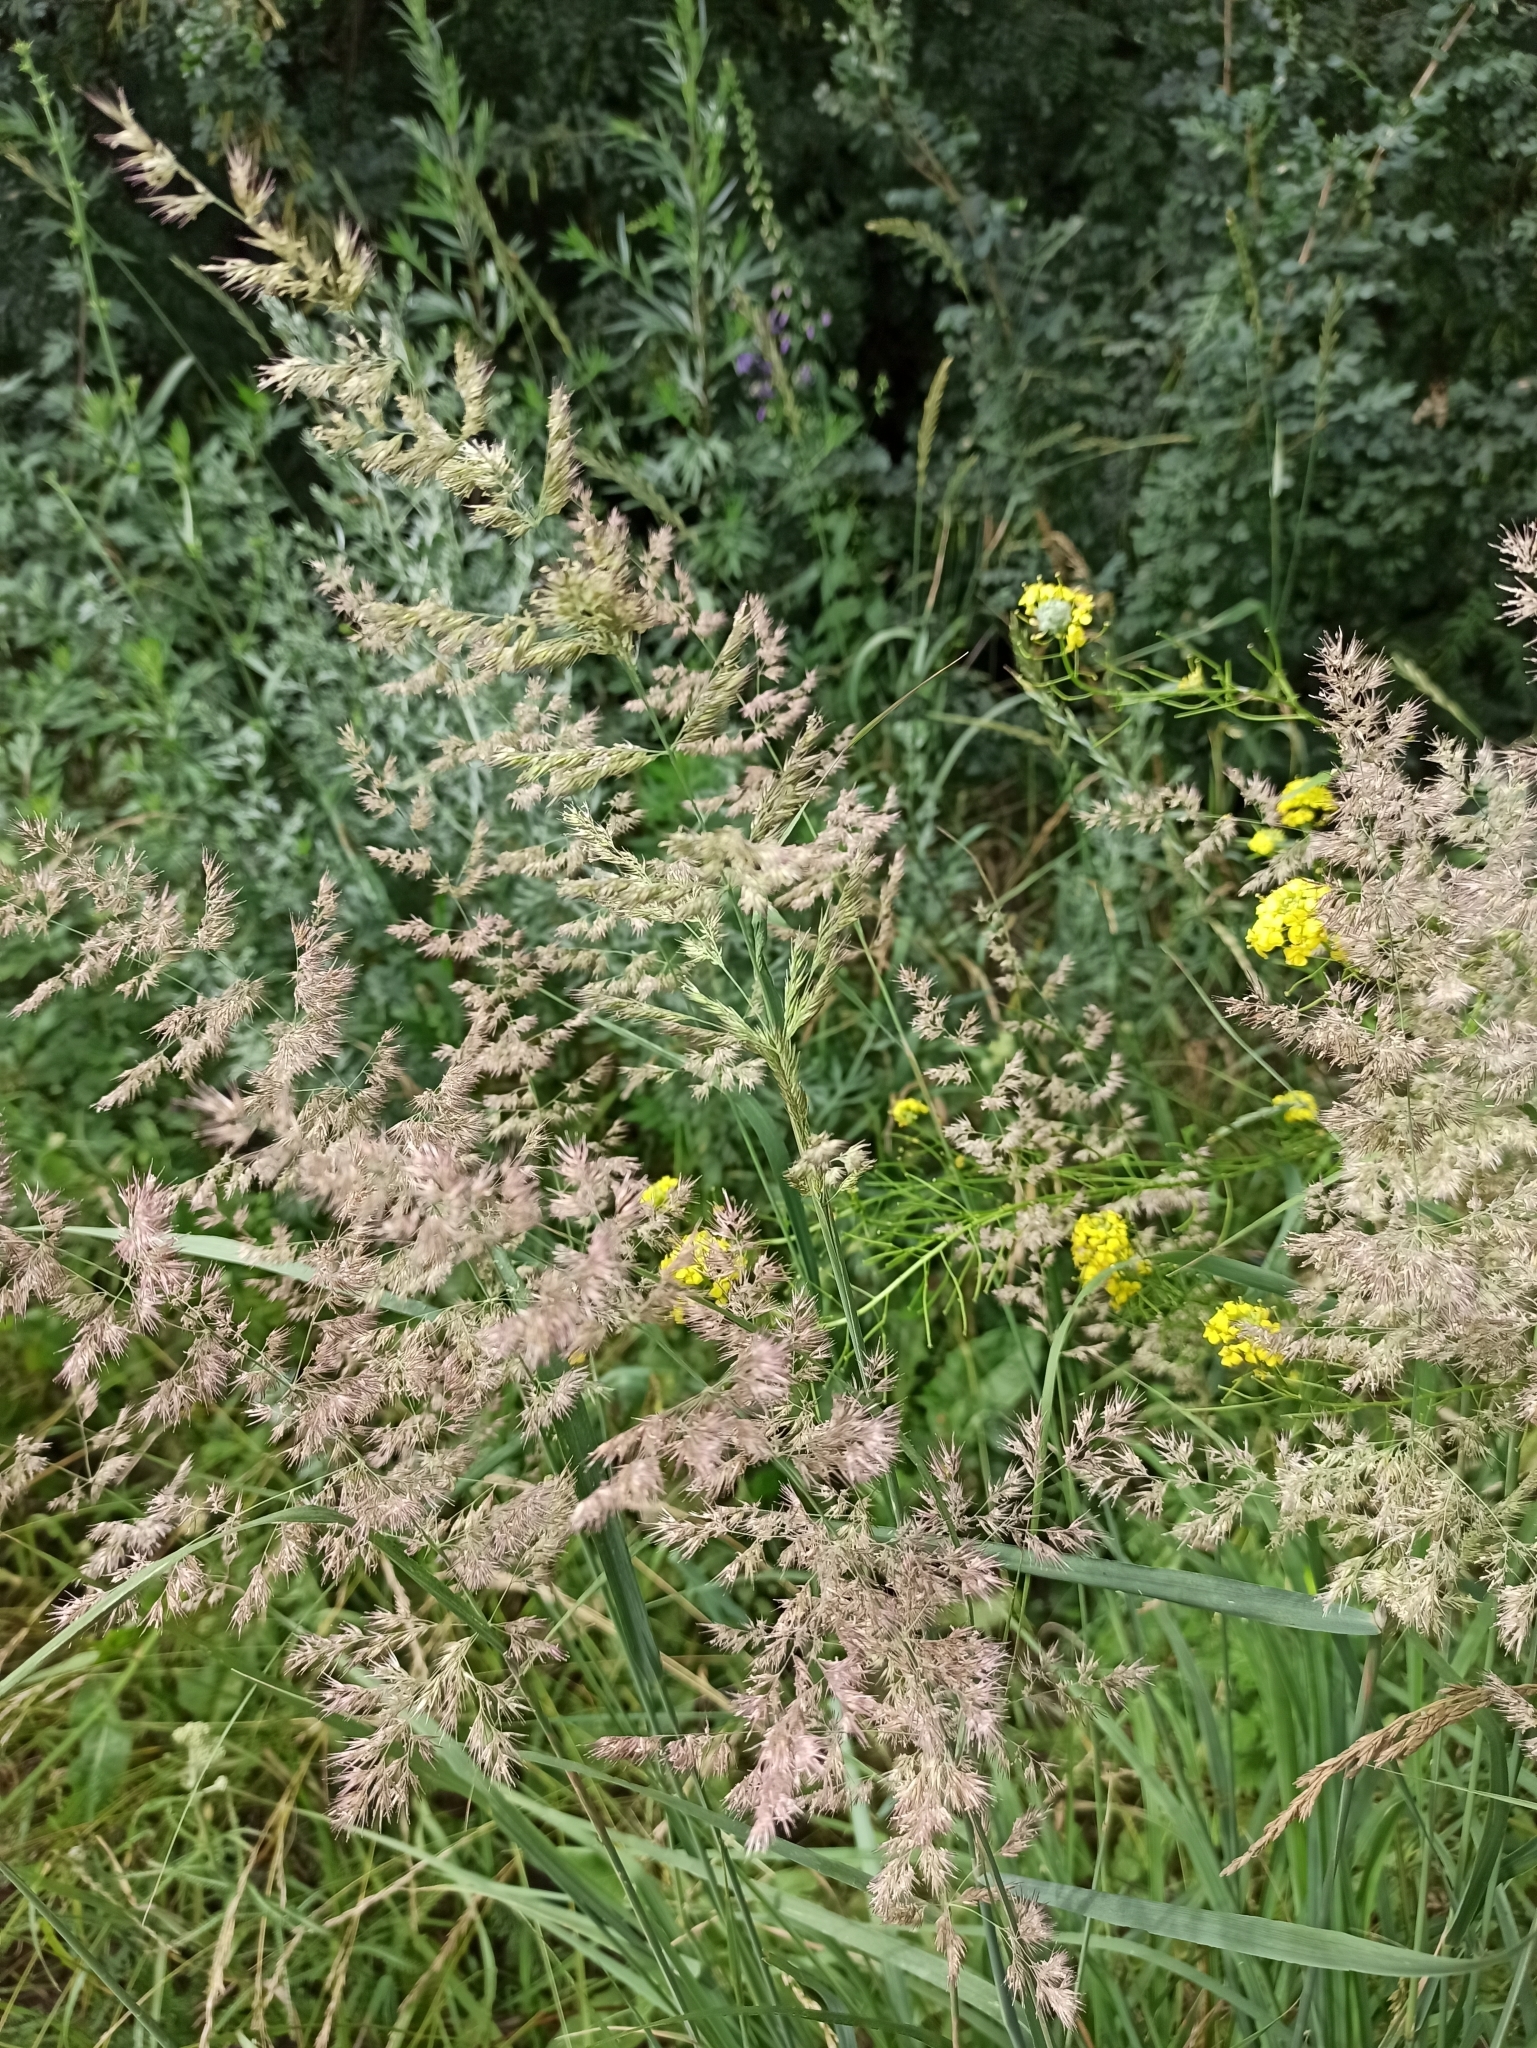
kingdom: Plantae
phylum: Tracheophyta
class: Liliopsida
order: Poales
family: Poaceae
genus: Calamagrostis
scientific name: Calamagrostis epigejos
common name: Wood small-reed
